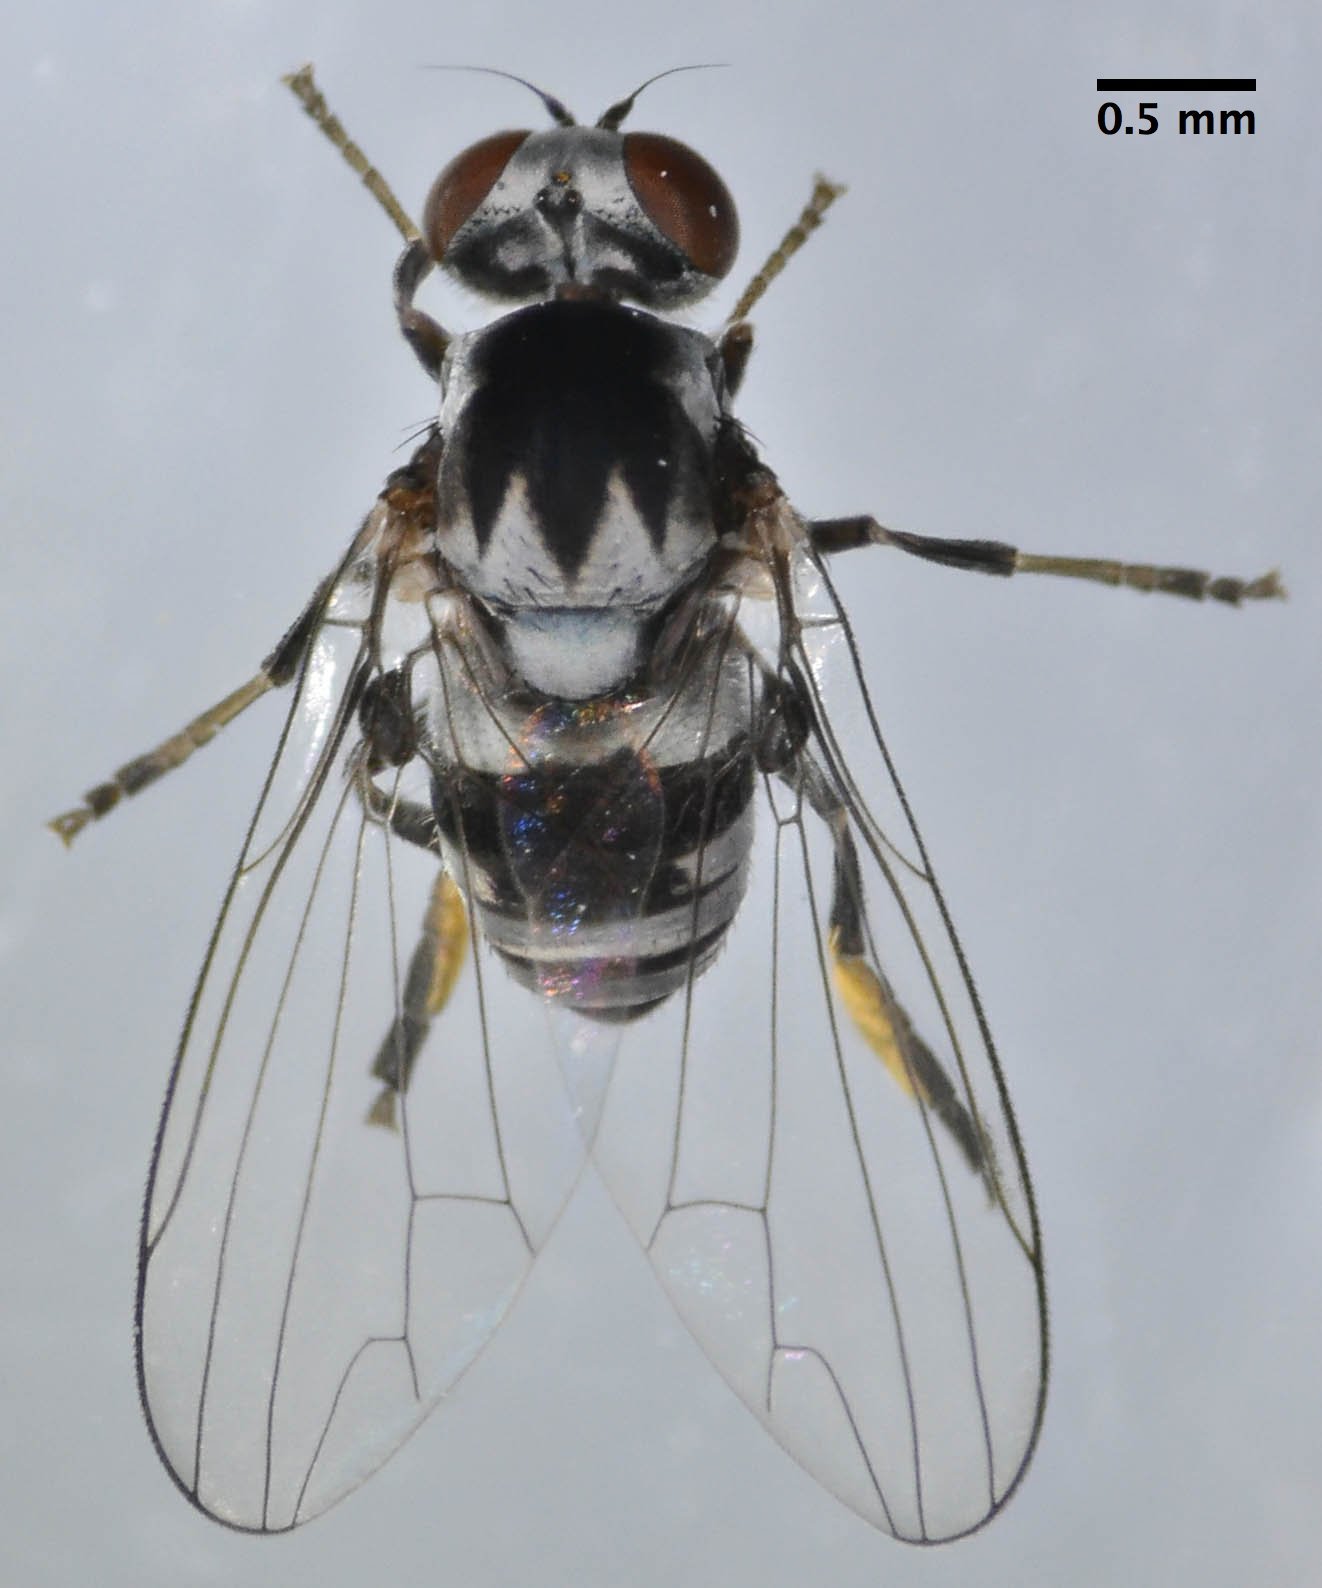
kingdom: Animalia
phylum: Arthropoda
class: Insecta
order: Diptera
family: Platypezidae
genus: Polyporivora
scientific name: Polyporivora polypori
